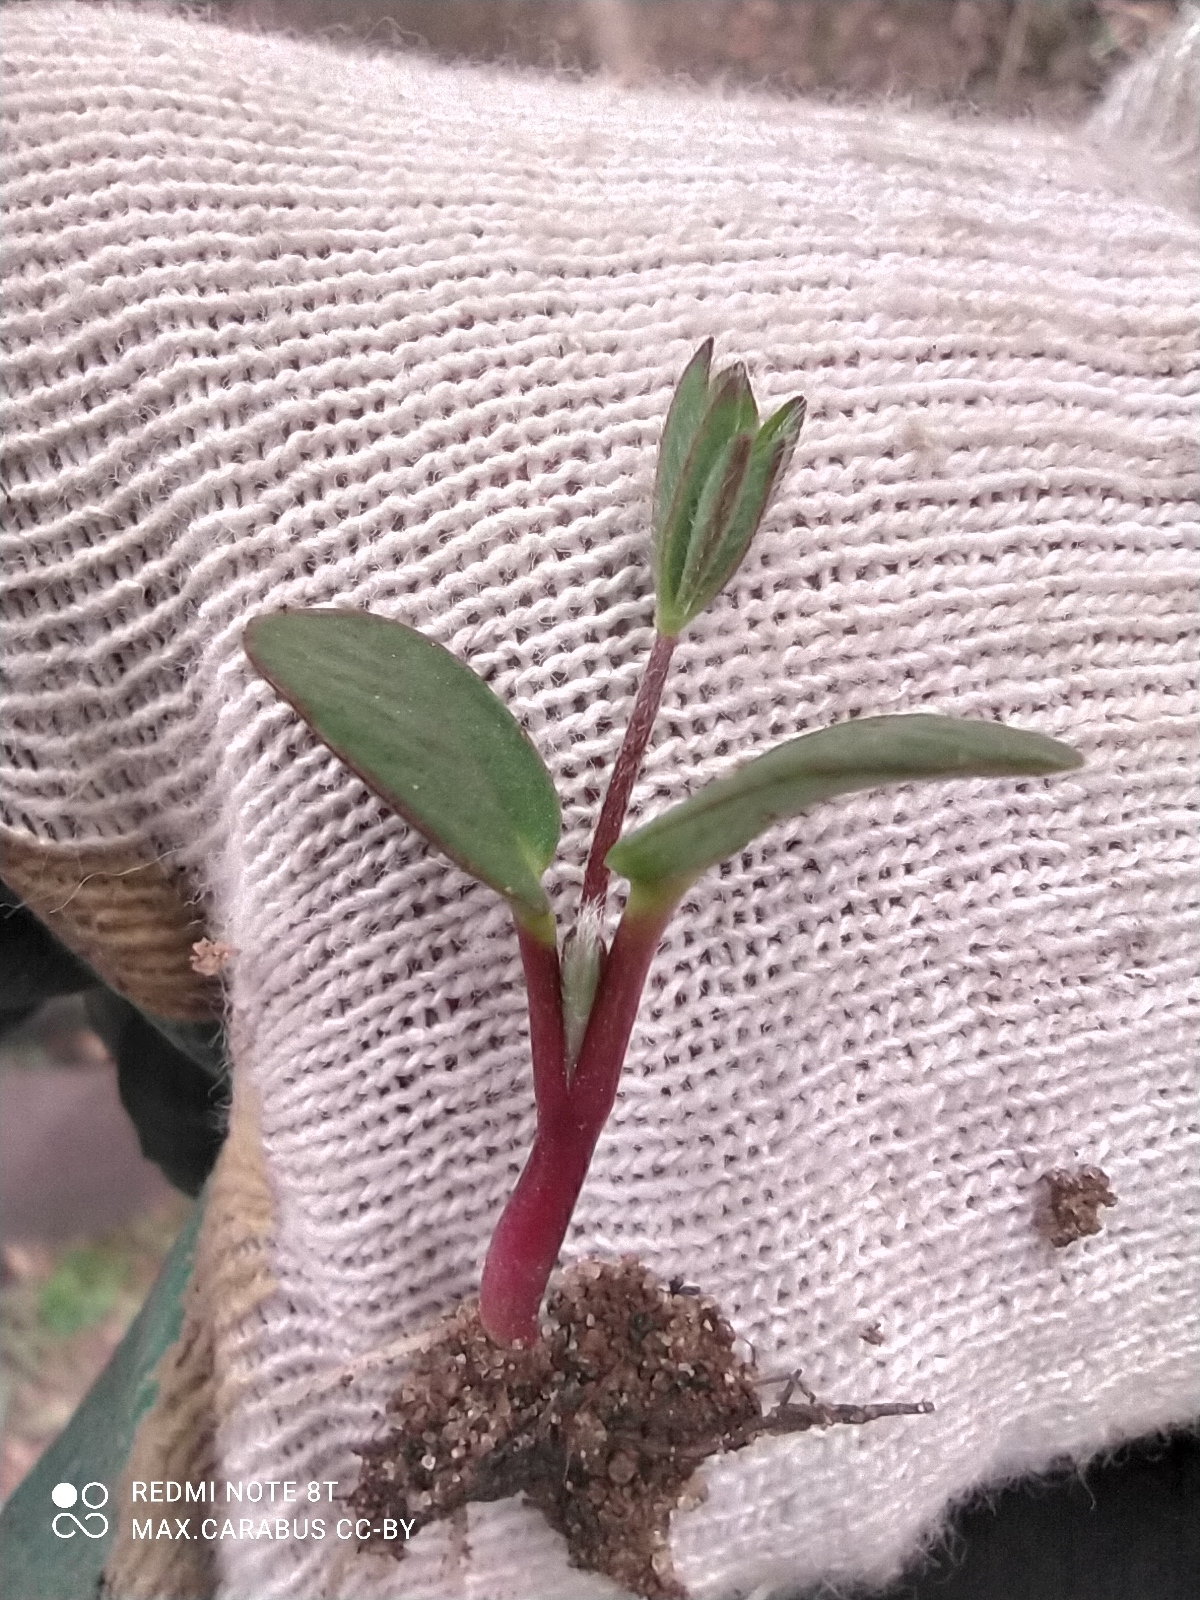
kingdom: Plantae
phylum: Tracheophyta
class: Magnoliopsida
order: Fabales
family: Fabaceae
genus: Lupinus
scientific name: Lupinus polyphyllus
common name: Garden lupin
